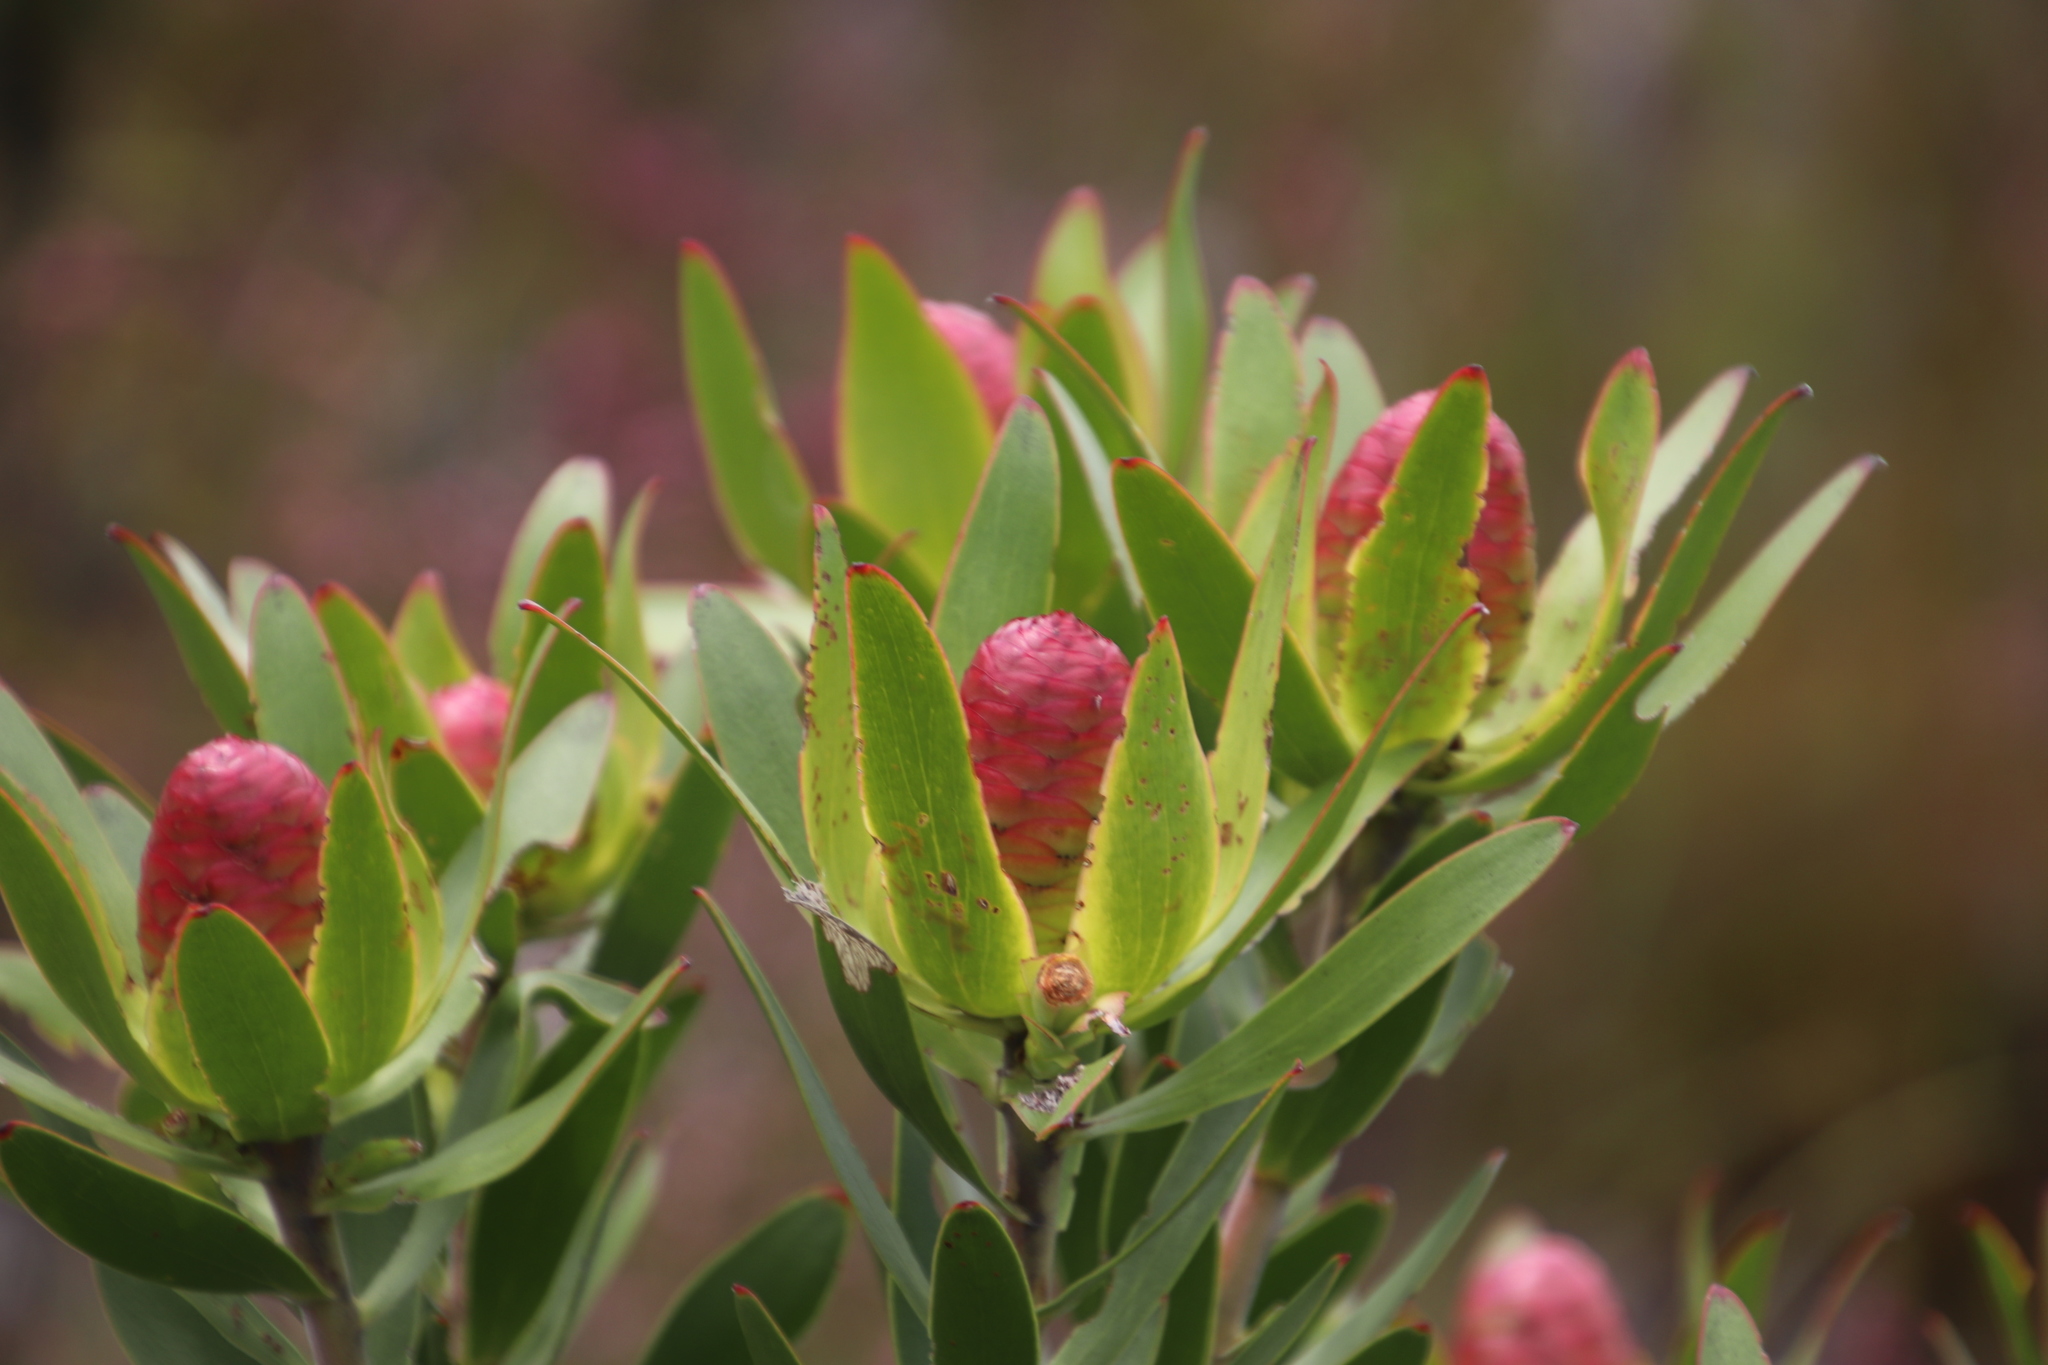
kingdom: Plantae
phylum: Tracheophyta
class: Magnoliopsida
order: Proteales
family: Proteaceae
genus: Leucadendron
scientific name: Leucadendron gandogeri
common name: Broad-leaf conebush
